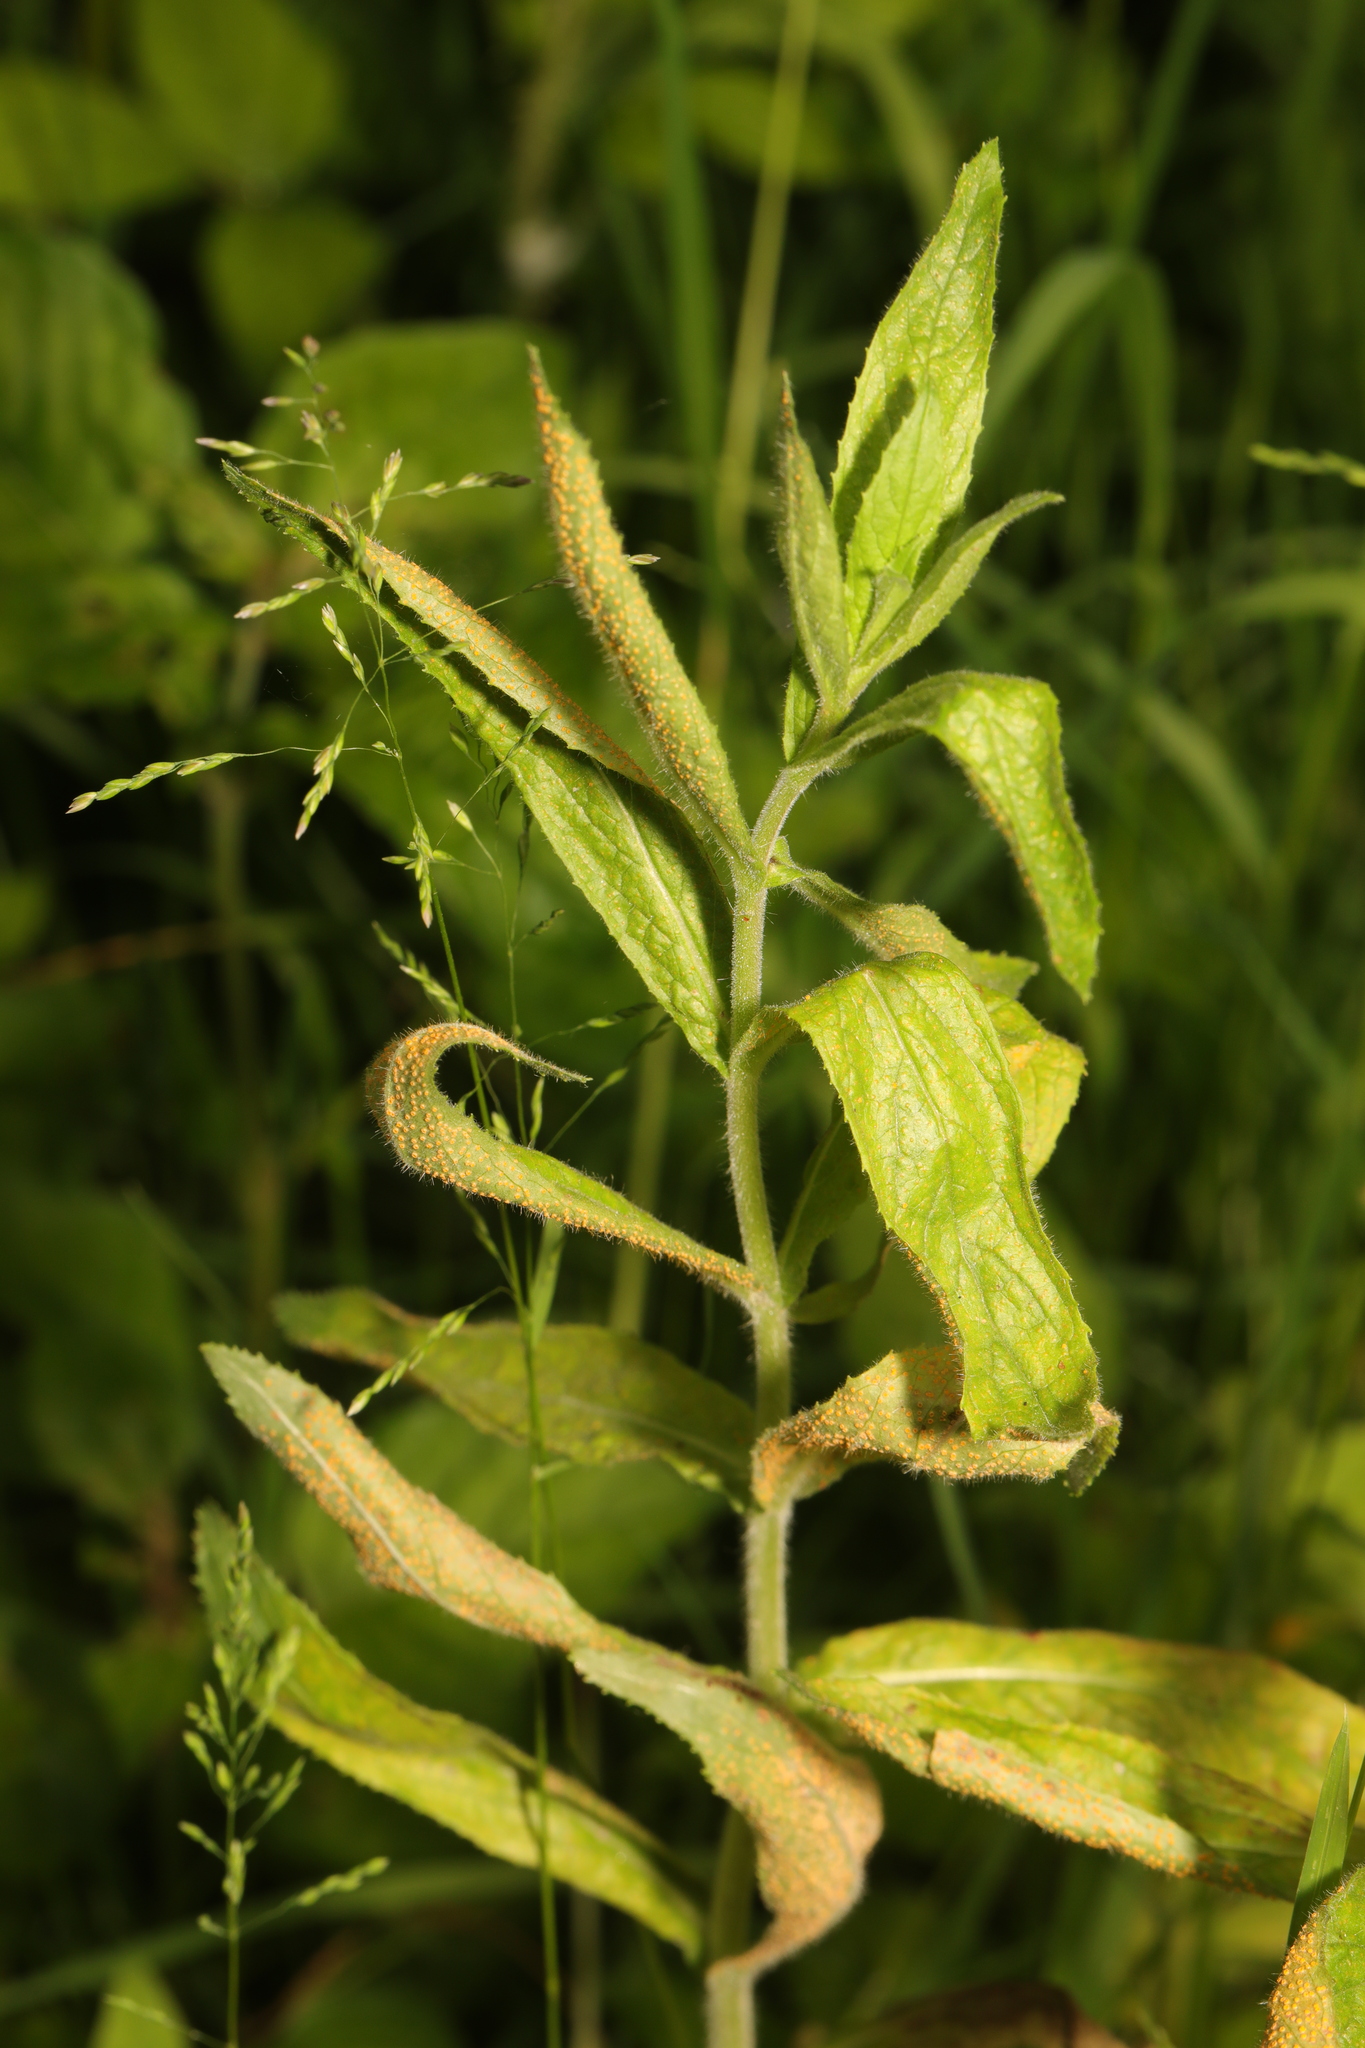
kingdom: Plantae
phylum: Tracheophyta
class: Magnoliopsida
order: Myrtales
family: Onagraceae
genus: Epilobium
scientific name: Epilobium hirsutum
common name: Great willowherb
